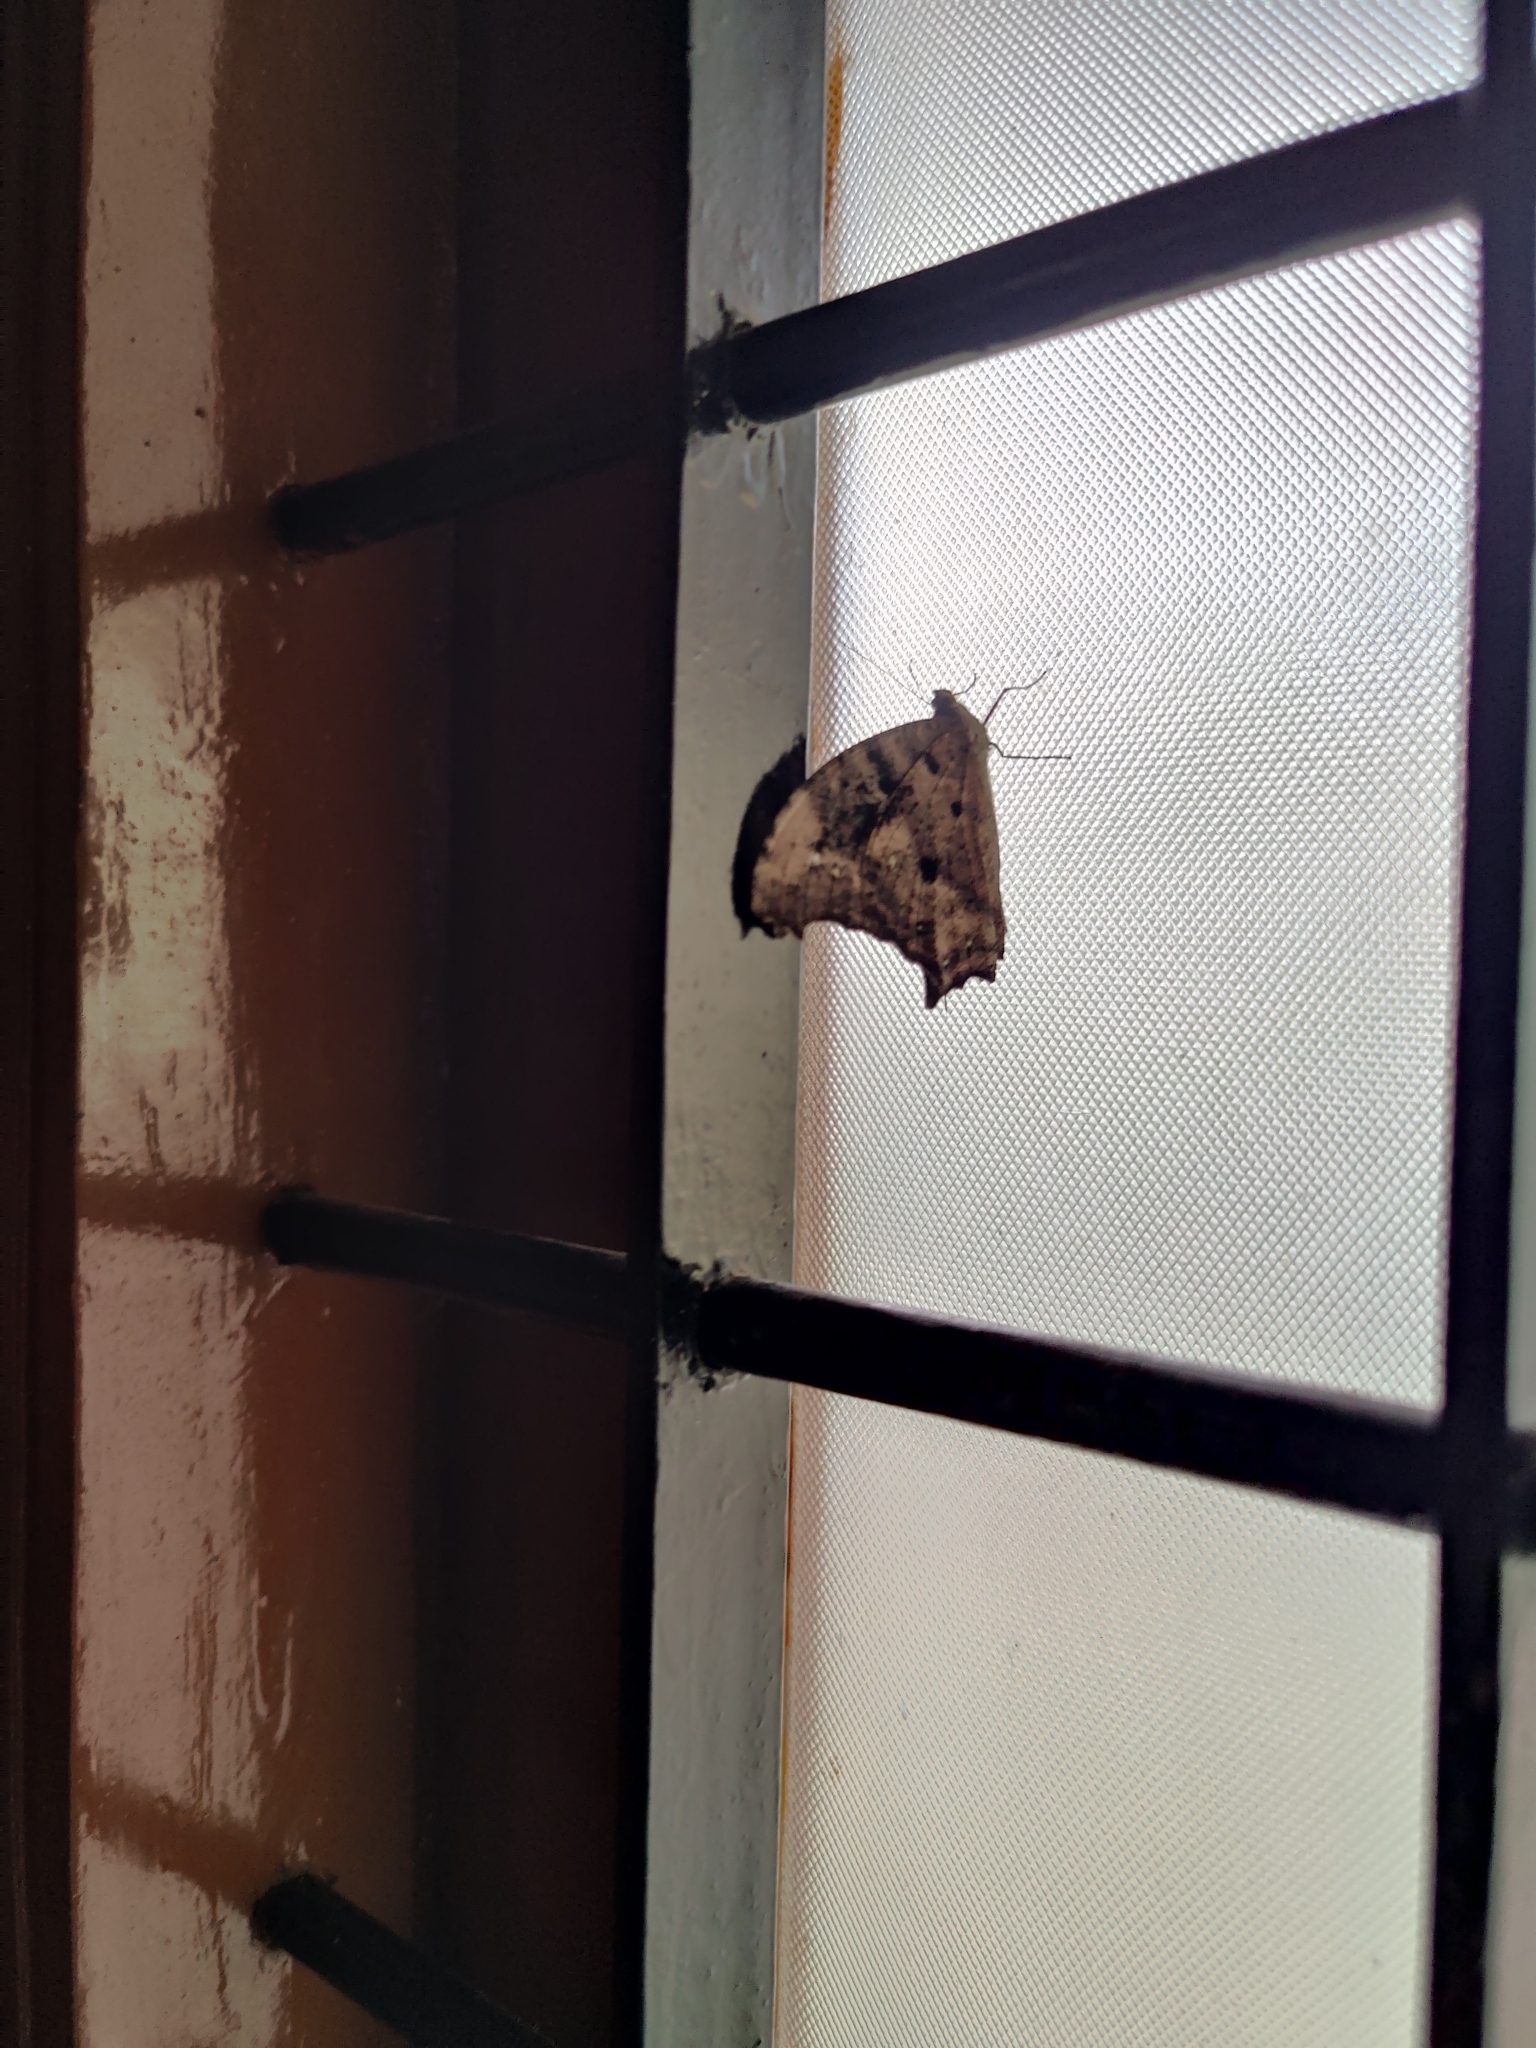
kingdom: Animalia
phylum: Arthropoda
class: Insecta
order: Lepidoptera
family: Nymphalidae
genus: Melanitis
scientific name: Melanitis leda
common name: Twilight brown
